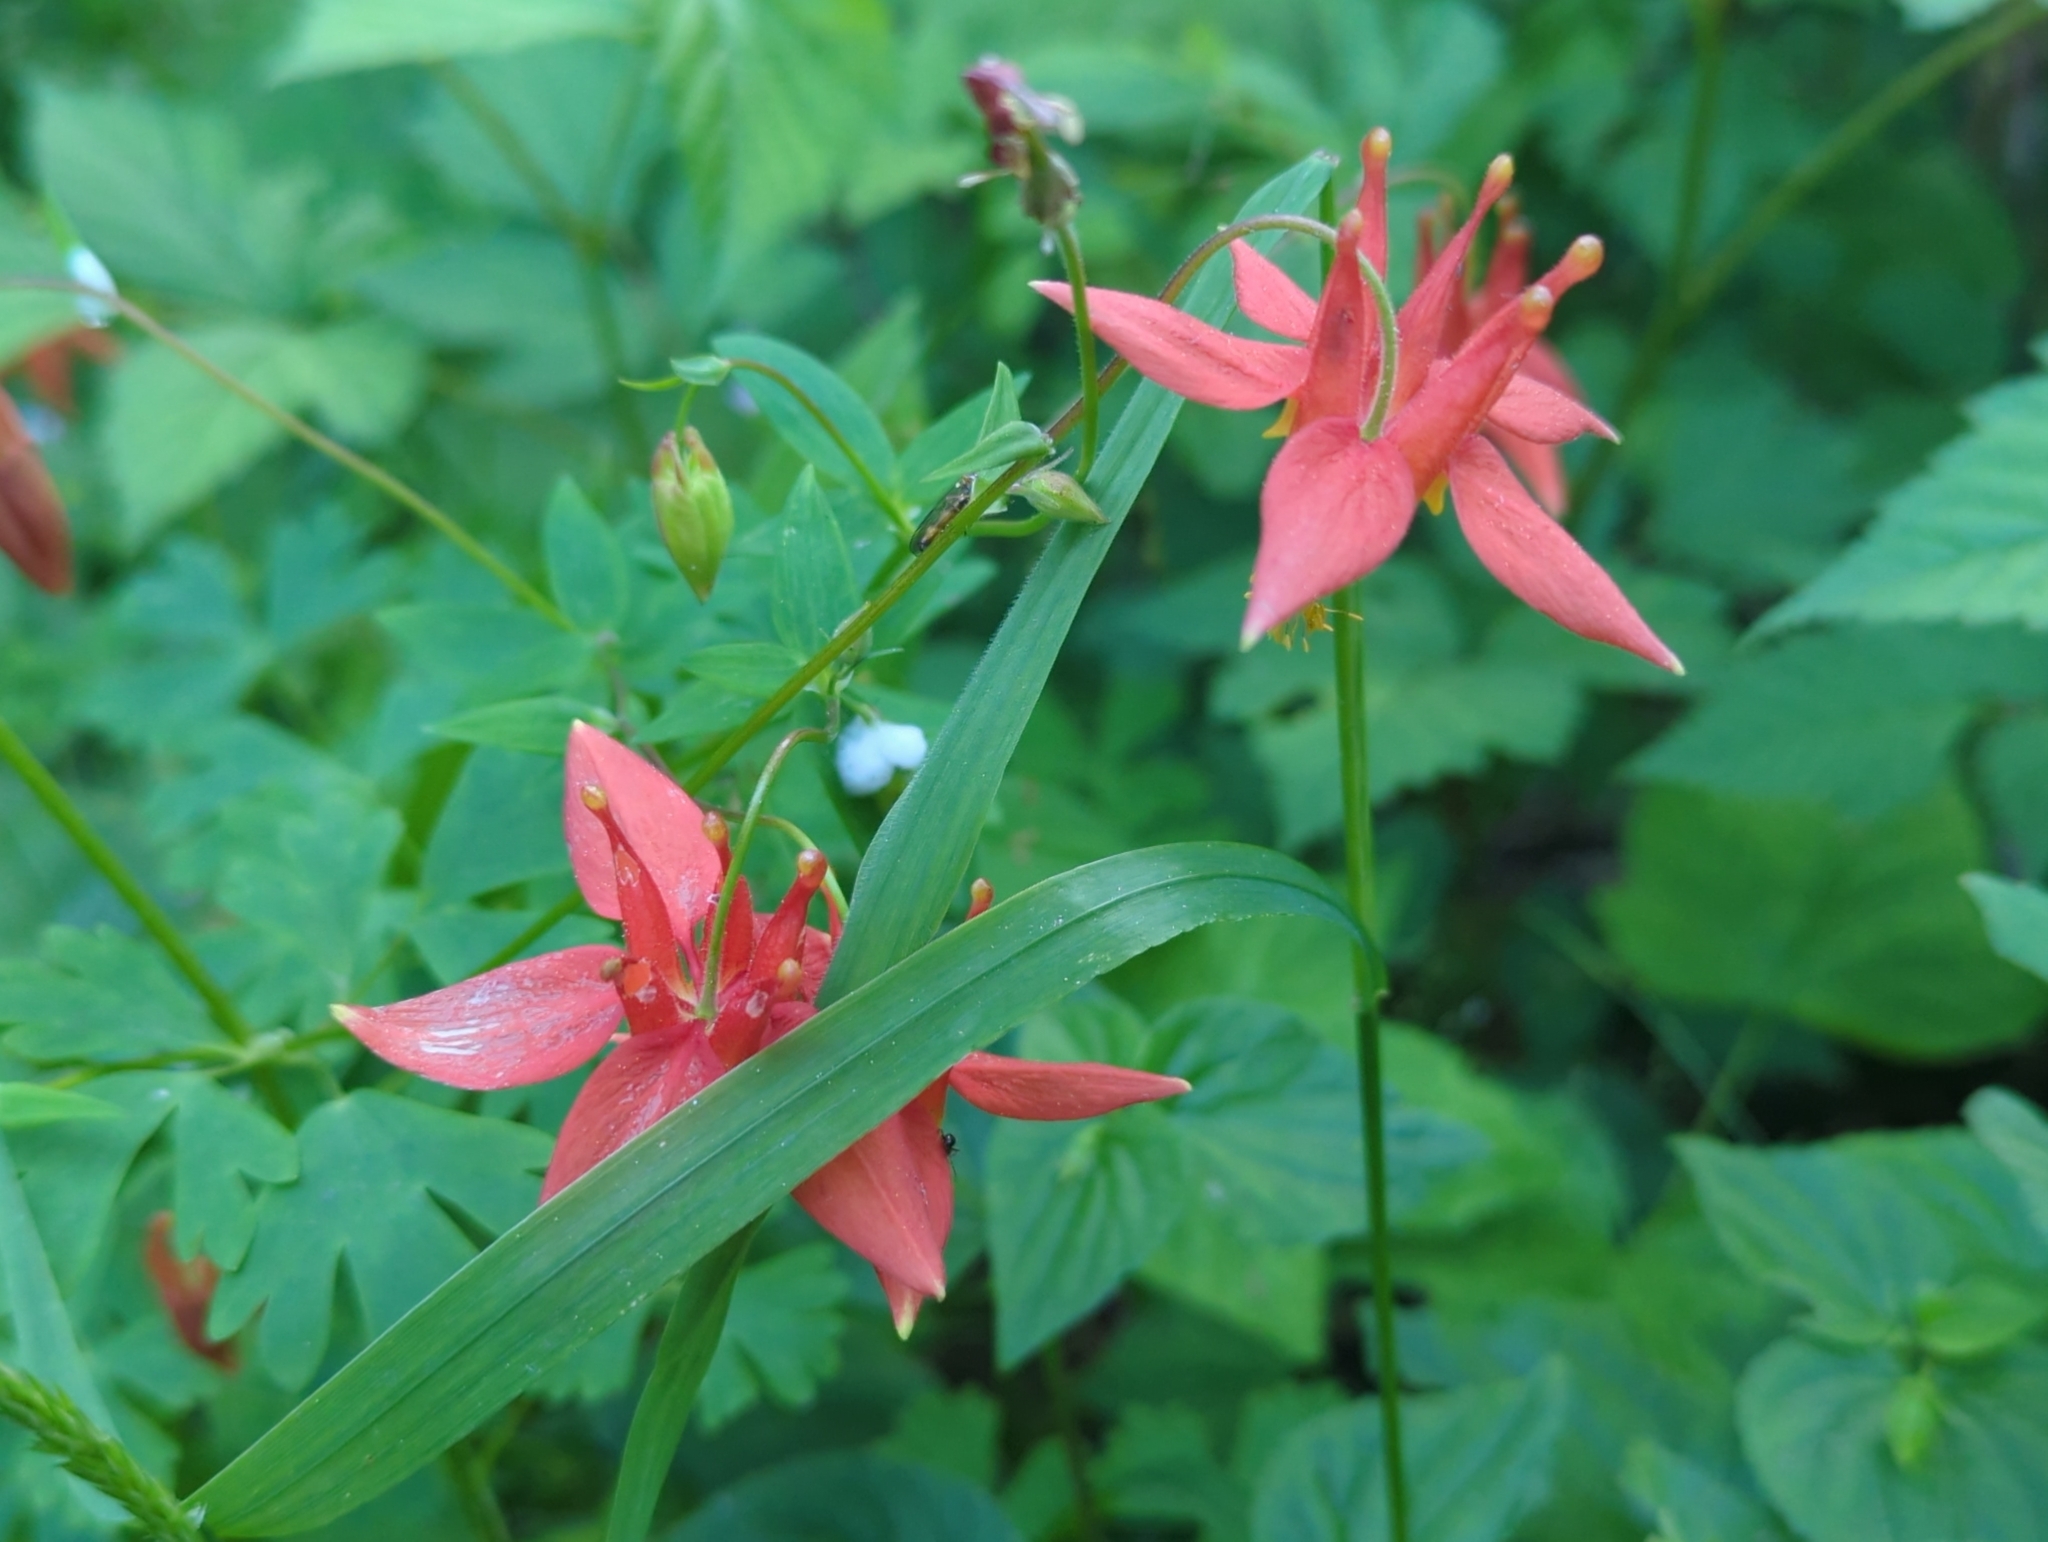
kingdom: Plantae
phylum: Tracheophyta
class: Magnoliopsida
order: Ranunculales
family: Ranunculaceae
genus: Aquilegia
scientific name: Aquilegia formosa
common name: Sitka columbine
